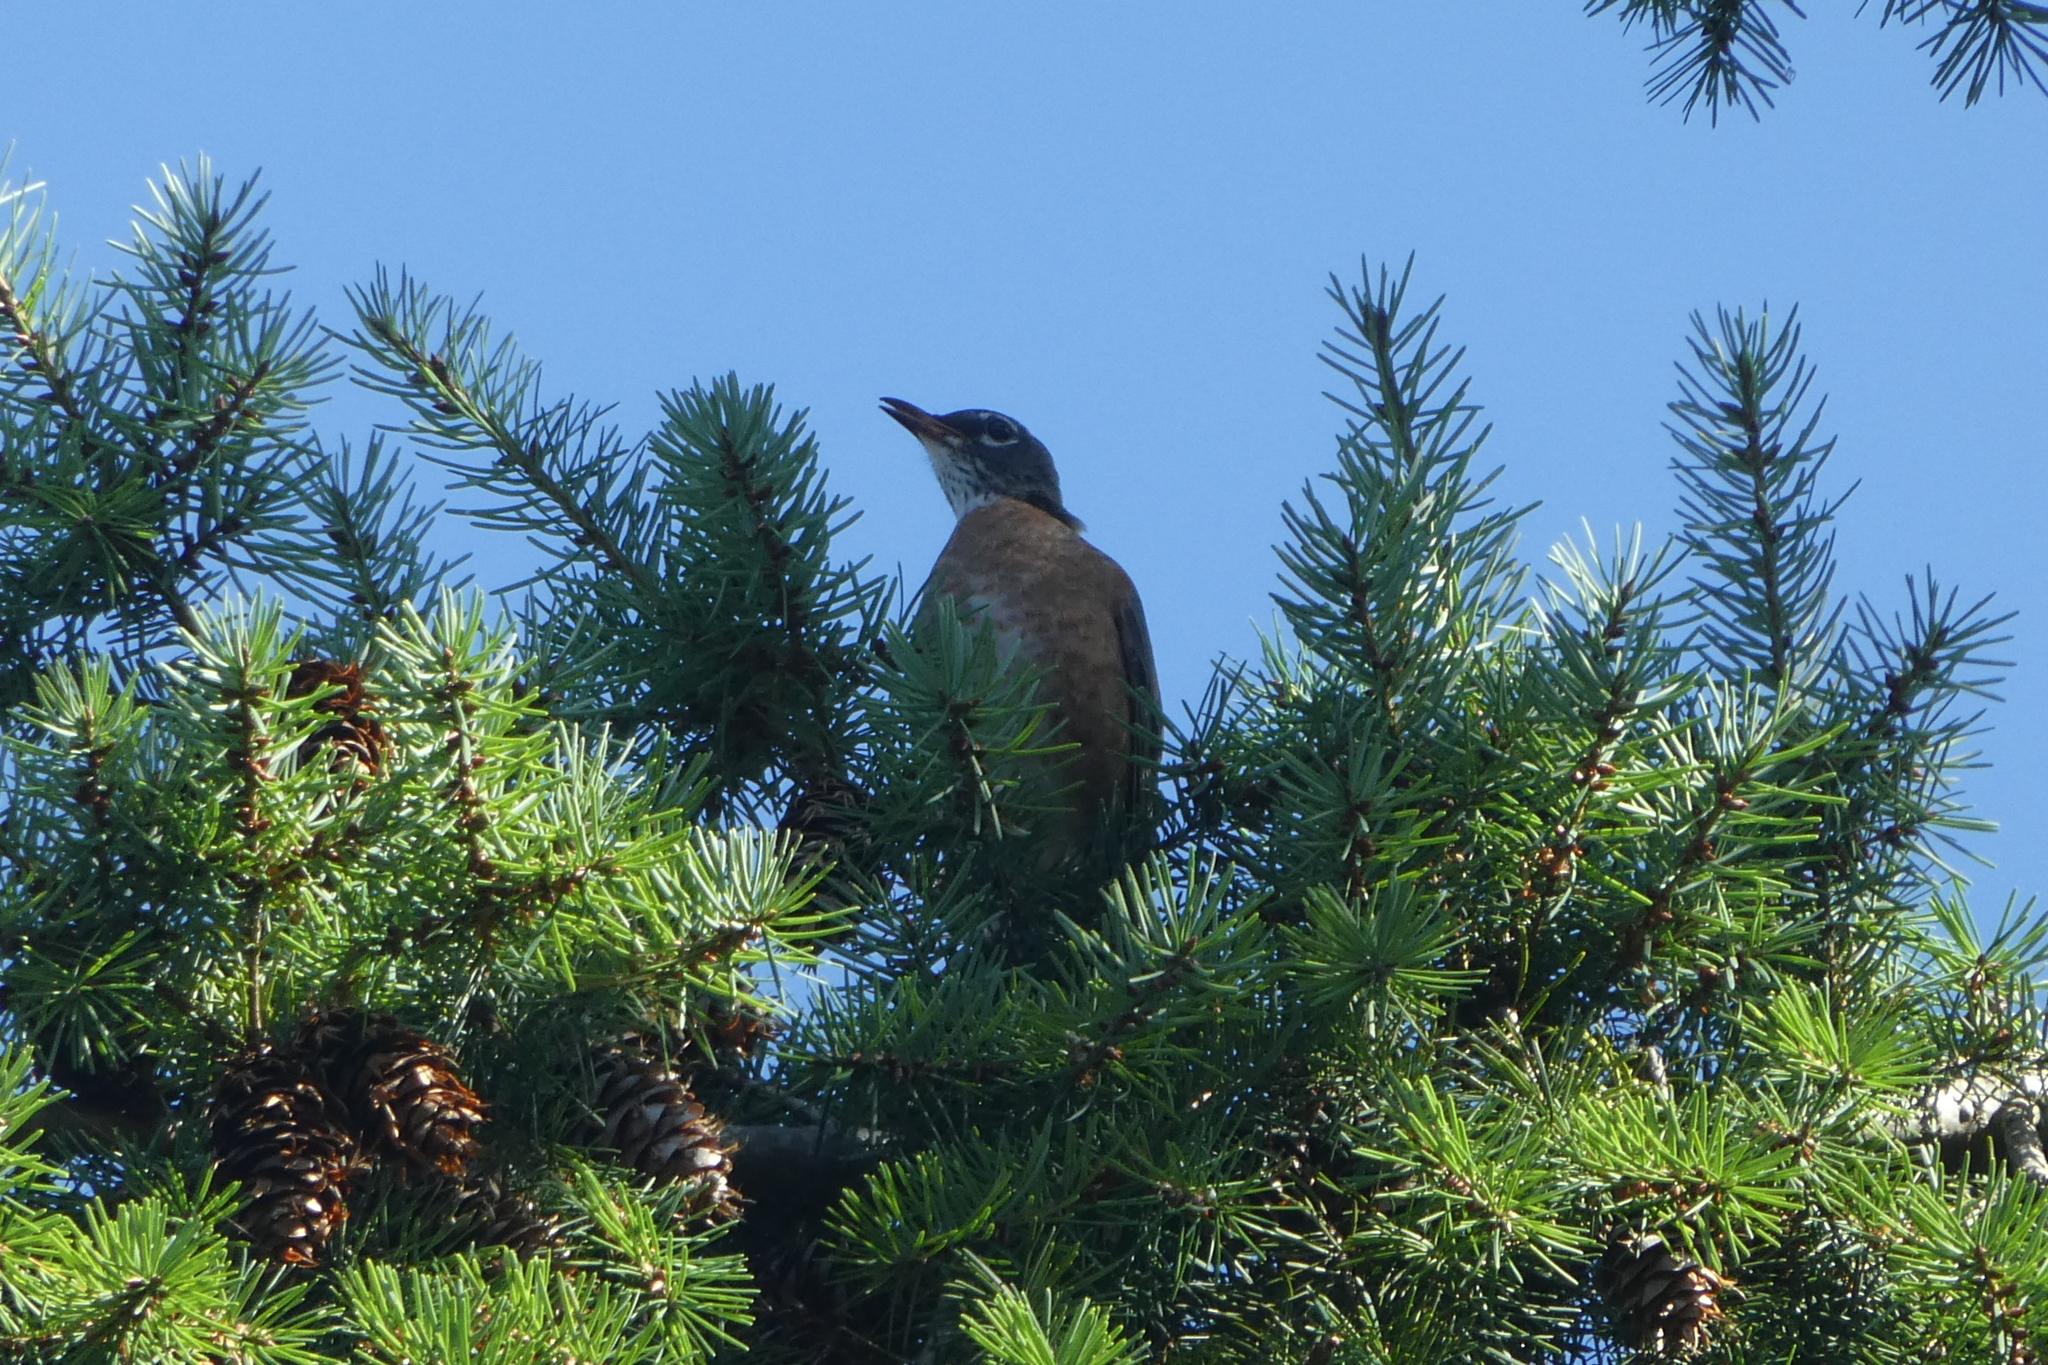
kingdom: Animalia
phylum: Chordata
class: Aves
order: Passeriformes
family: Turdidae
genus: Turdus
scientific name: Turdus migratorius
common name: American robin
